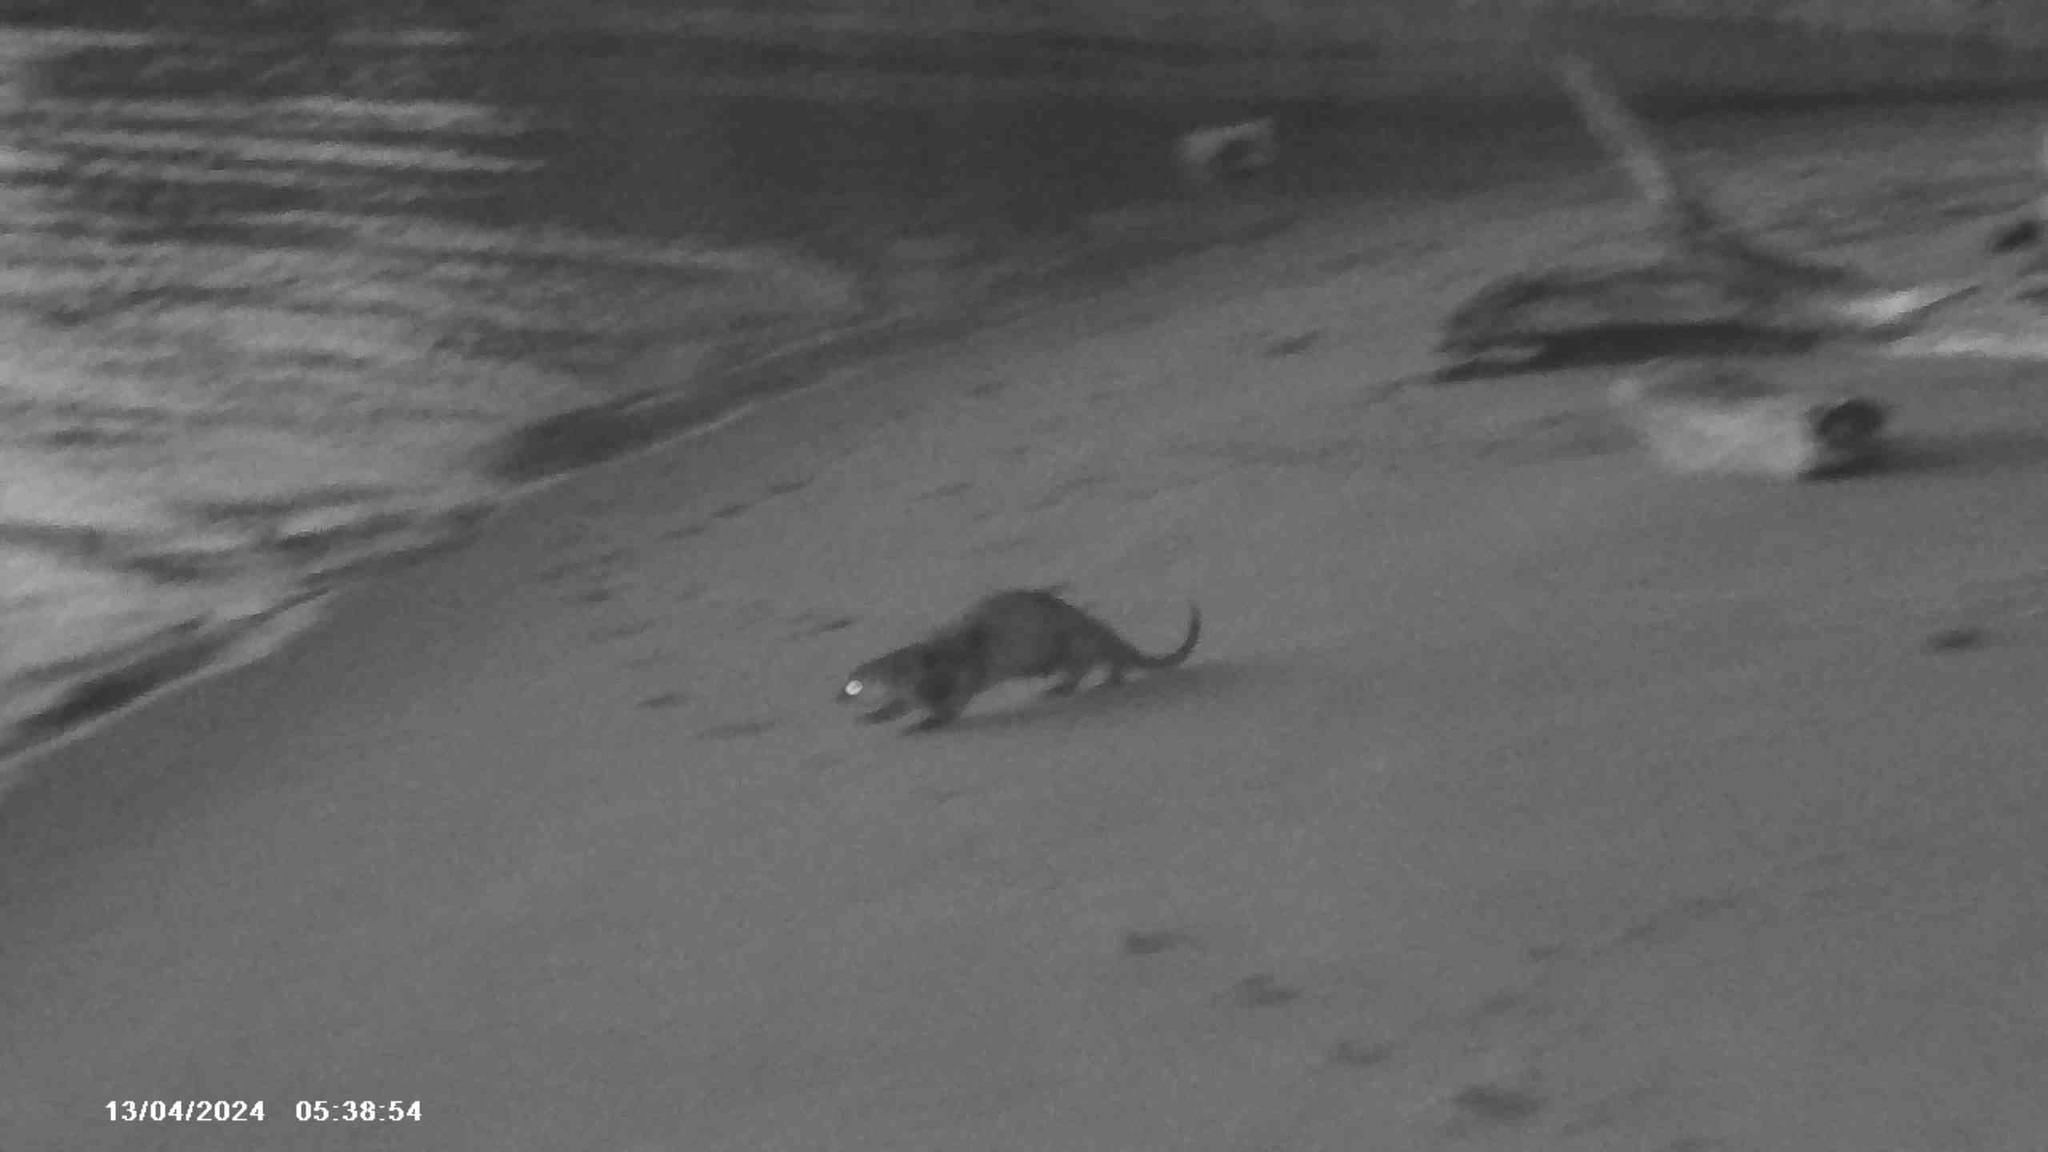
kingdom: Animalia
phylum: Chordata
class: Mammalia
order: Carnivora
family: Mustelidae
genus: Lontra
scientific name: Lontra canadensis
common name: North american river otter
